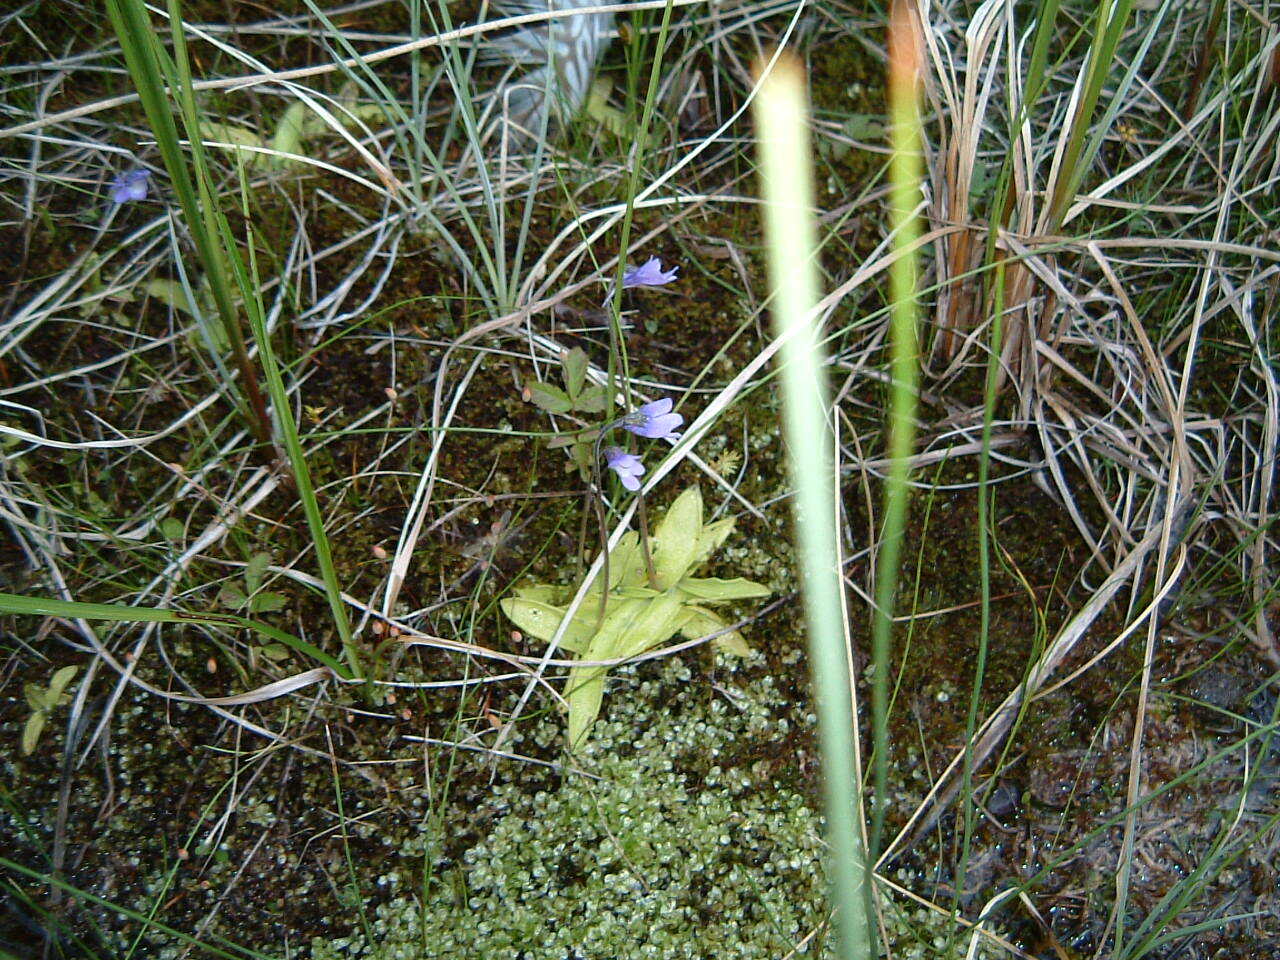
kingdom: Plantae
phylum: Tracheophyta
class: Magnoliopsida
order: Lamiales
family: Lentibulariaceae
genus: Pinguicula
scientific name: Pinguicula vulgaris
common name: Common butterwort
